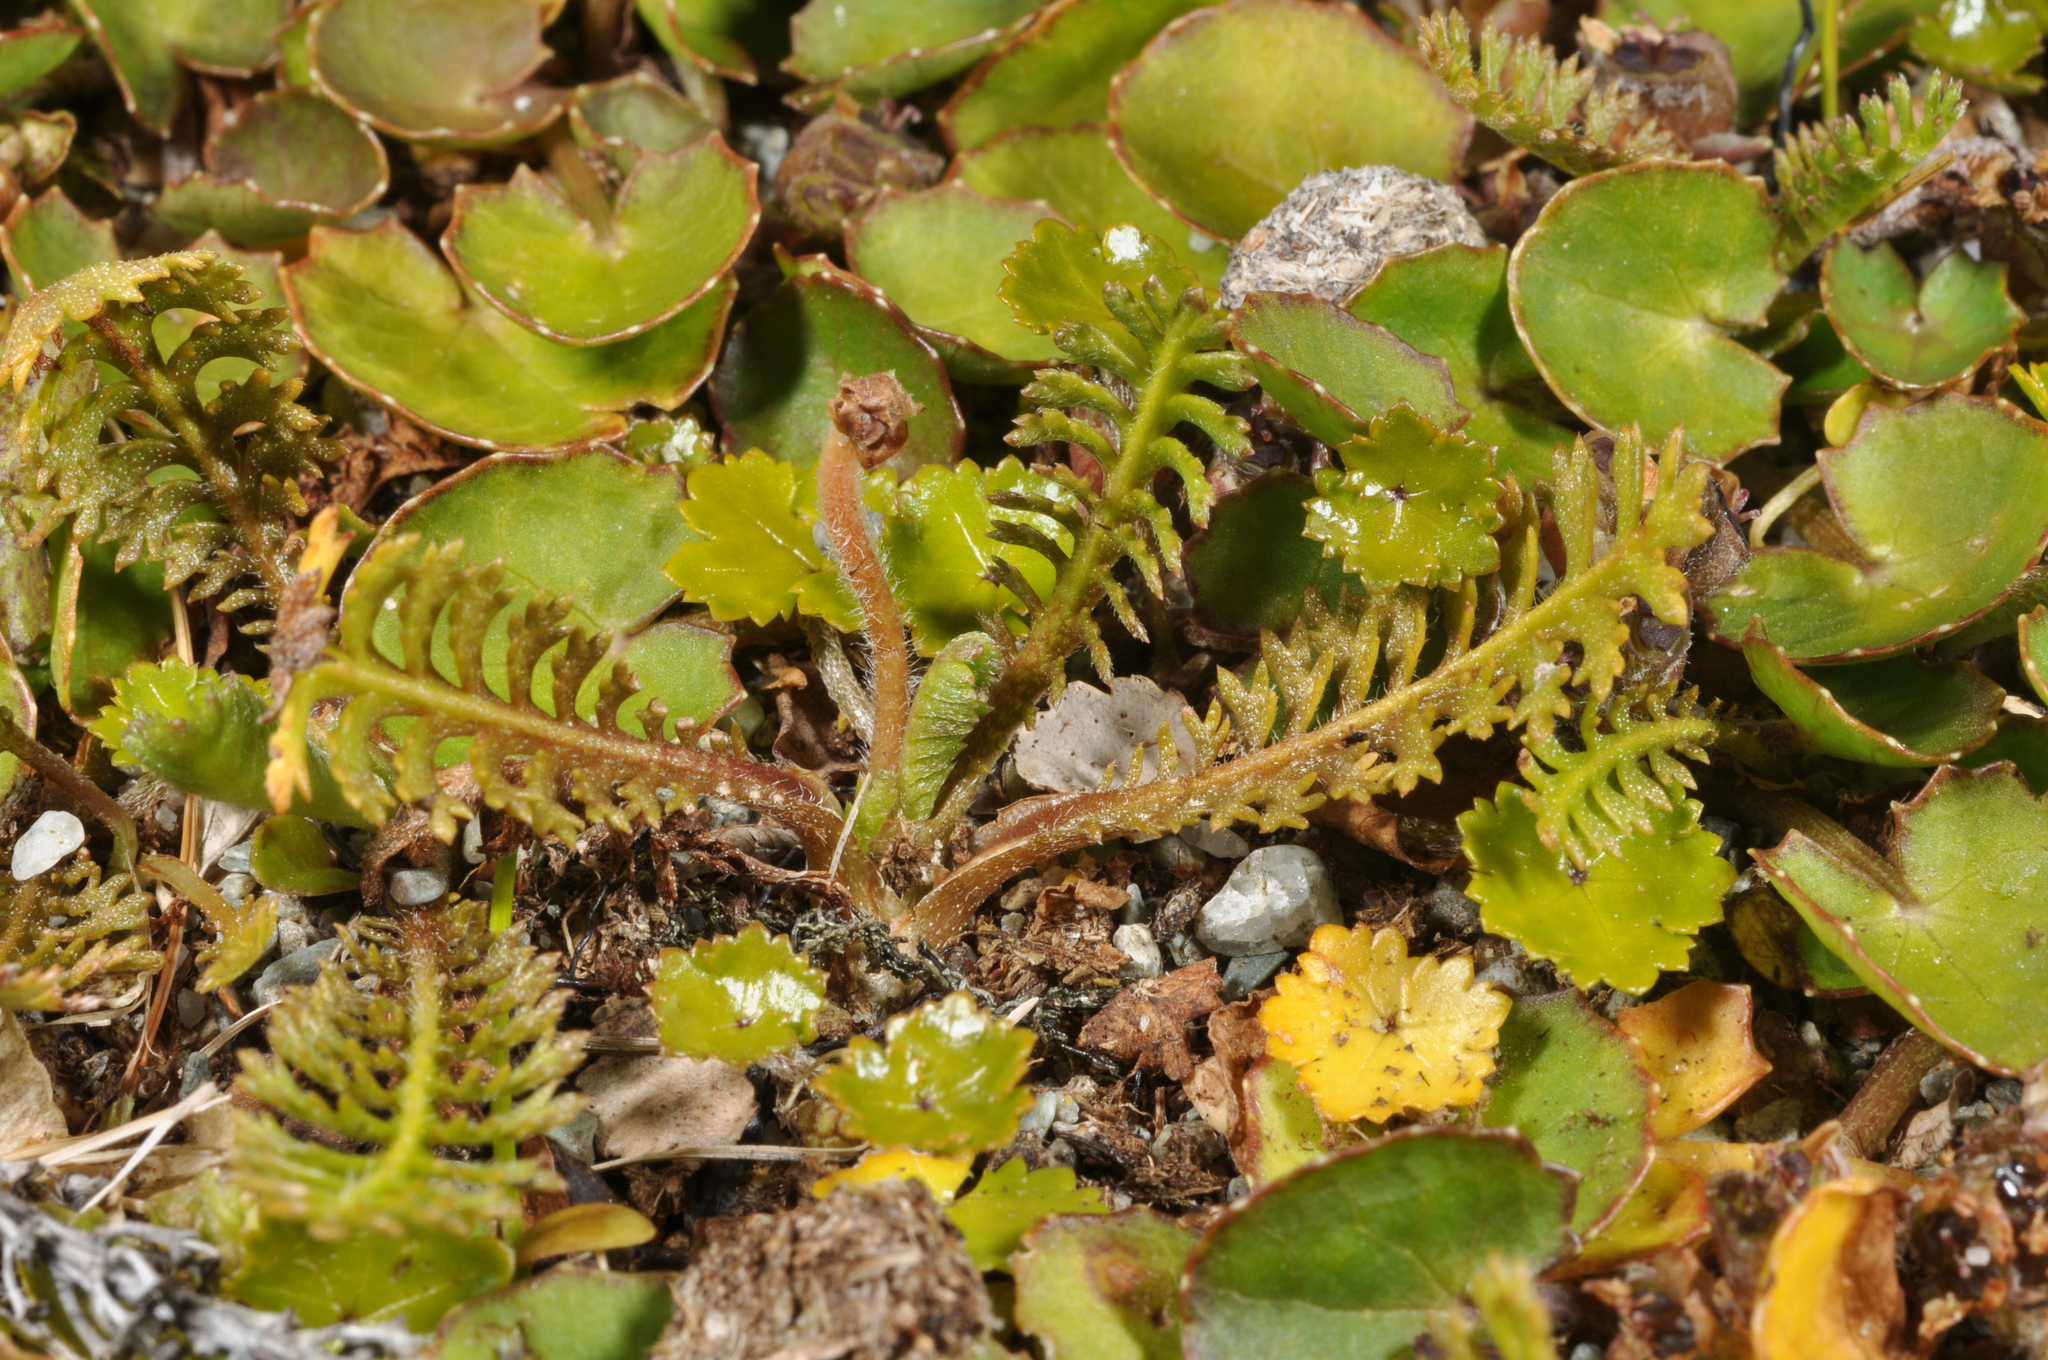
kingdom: Plantae
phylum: Tracheophyta
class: Magnoliopsida
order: Asterales
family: Asteraceae
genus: Leptinella
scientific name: Leptinella squalida
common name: New zealand brass-buttons
